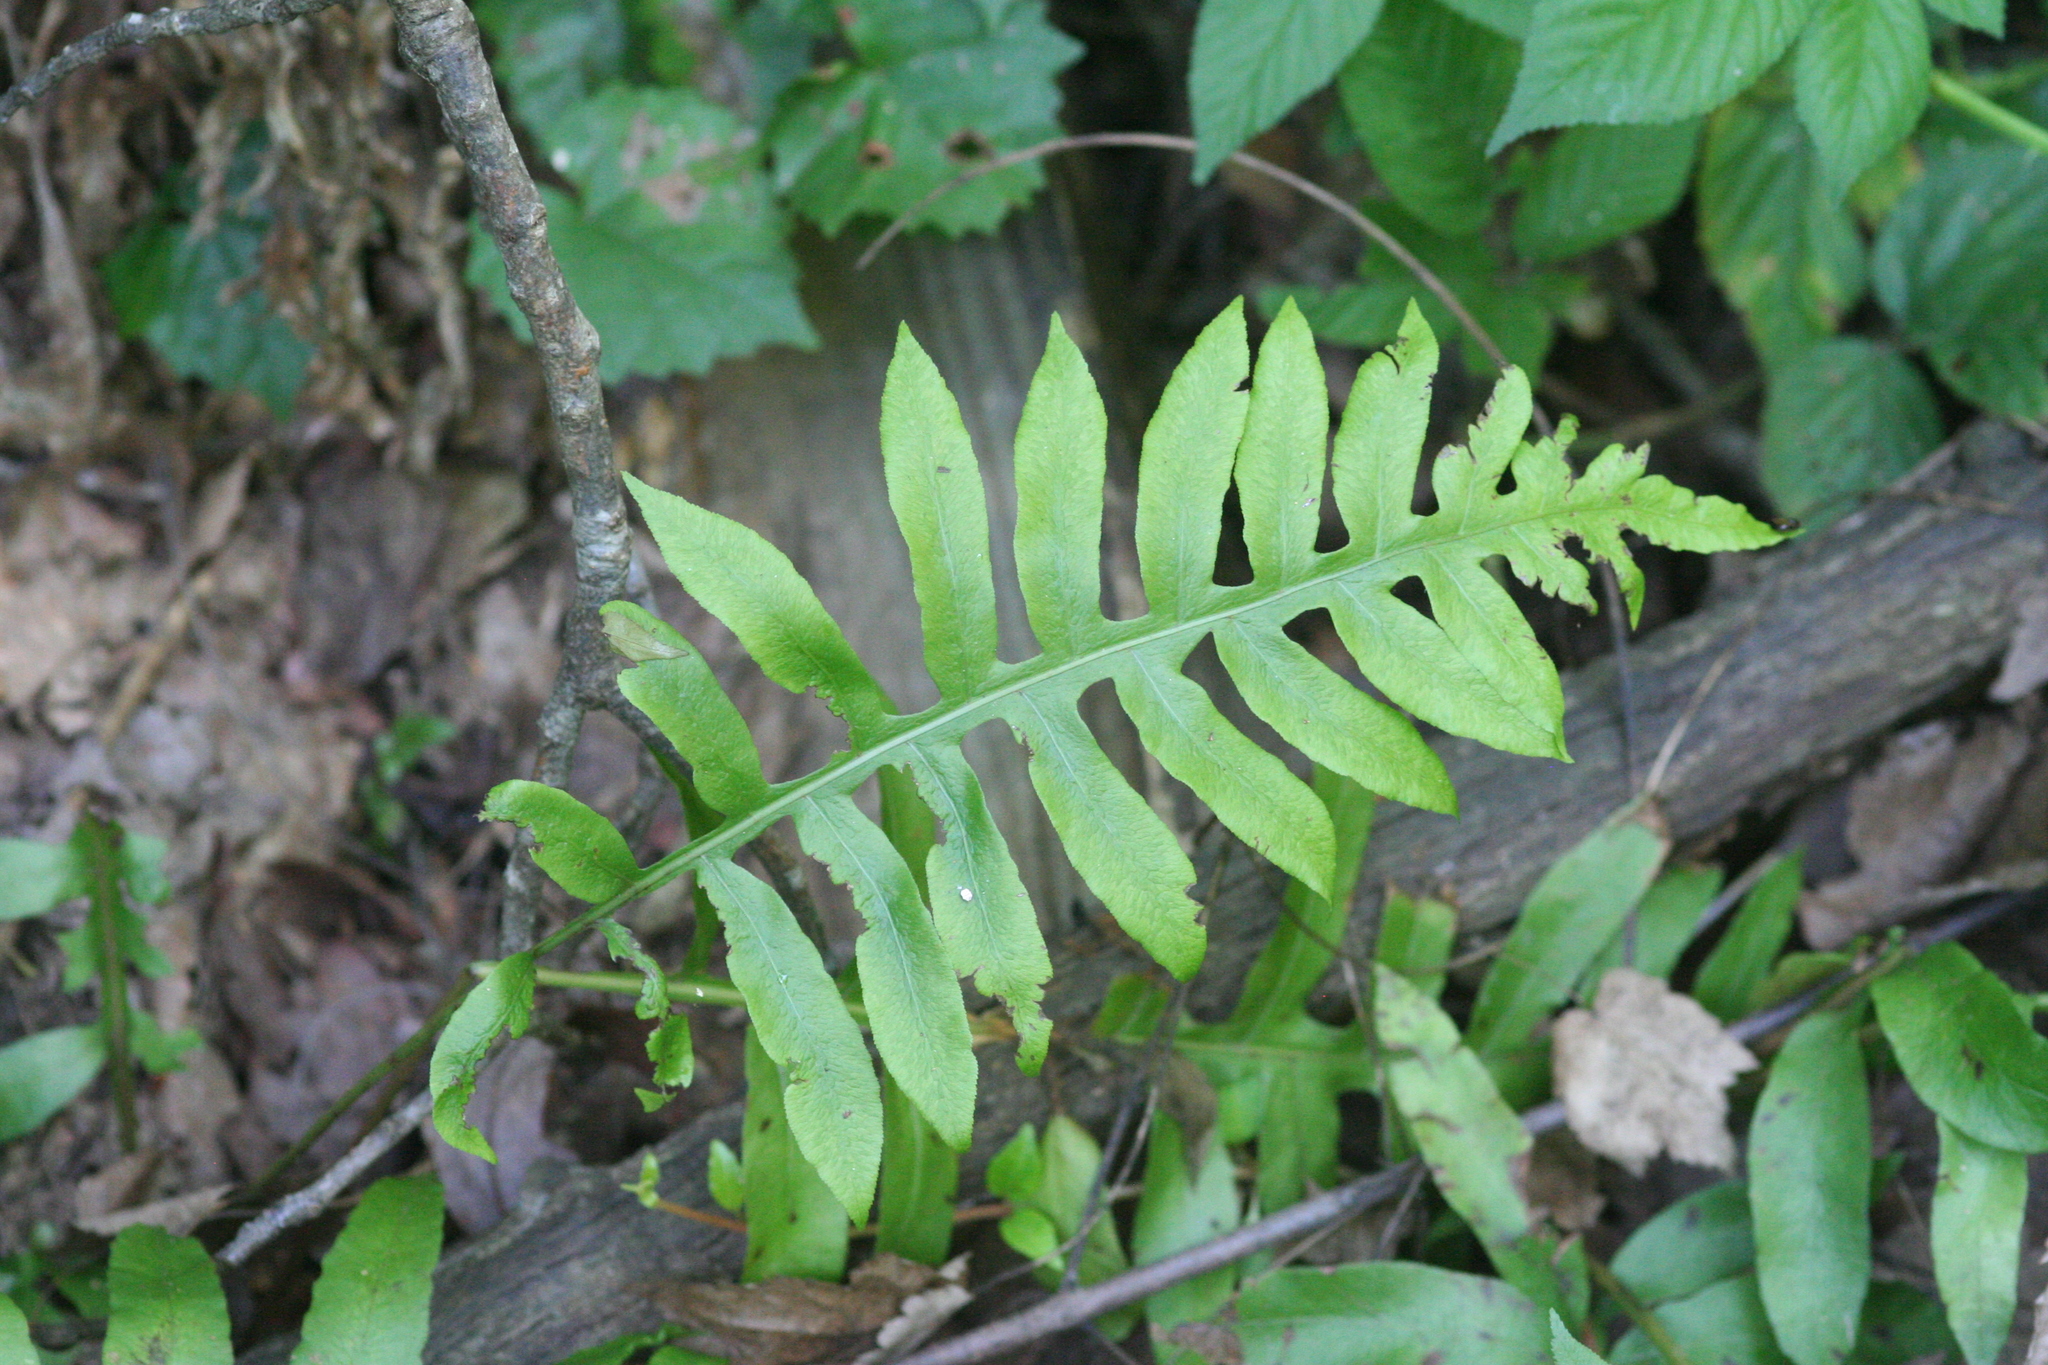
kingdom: Plantae
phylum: Tracheophyta
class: Polypodiopsida
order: Polypodiales
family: Blechnaceae
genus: Lorinseria
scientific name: Lorinseria areolata
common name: Dwarf chain fern
